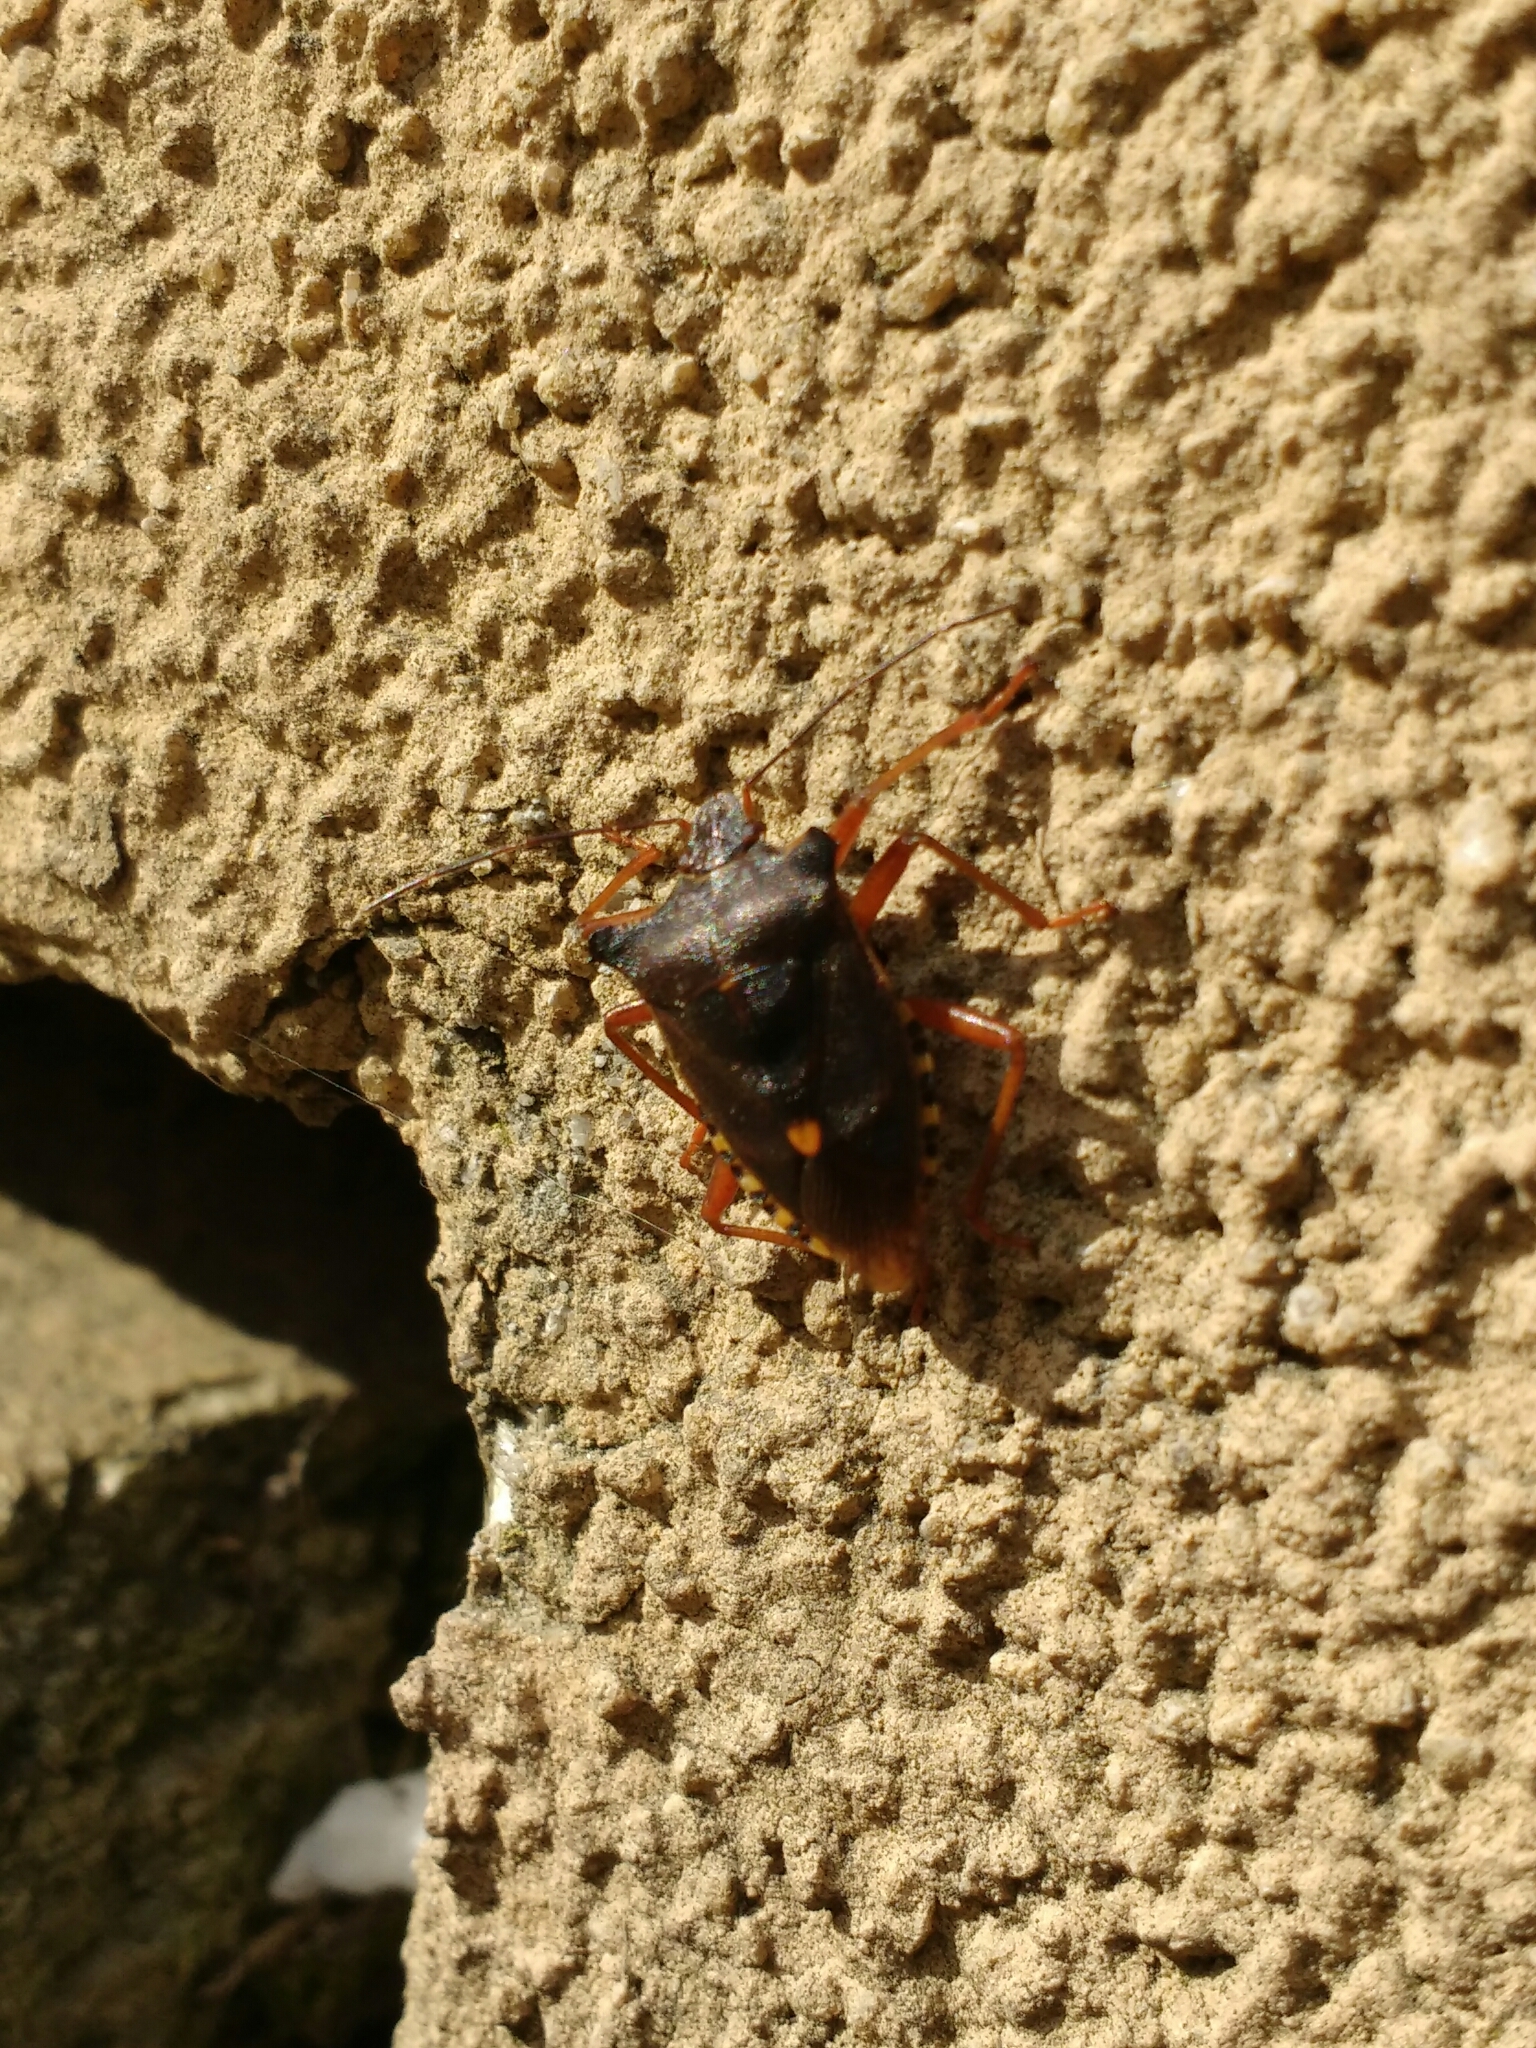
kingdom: Animalia
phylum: Arthropoda
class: Insecta
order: Hemiptera
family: Pentatomidae
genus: Pentatoma
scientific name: Pentatoma rufipes
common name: Forest bug
